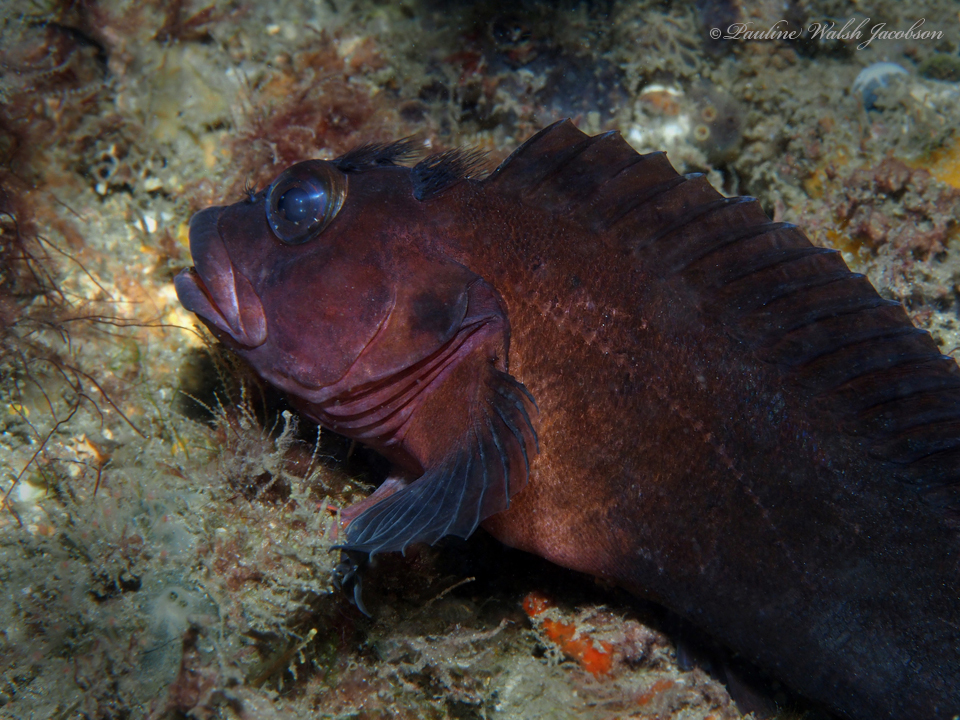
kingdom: Animalia
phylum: Chordata
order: Perciformes
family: Labrisomidae
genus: Labrisomus
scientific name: Labrisomus conditus
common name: Masquerader hairy blenny
